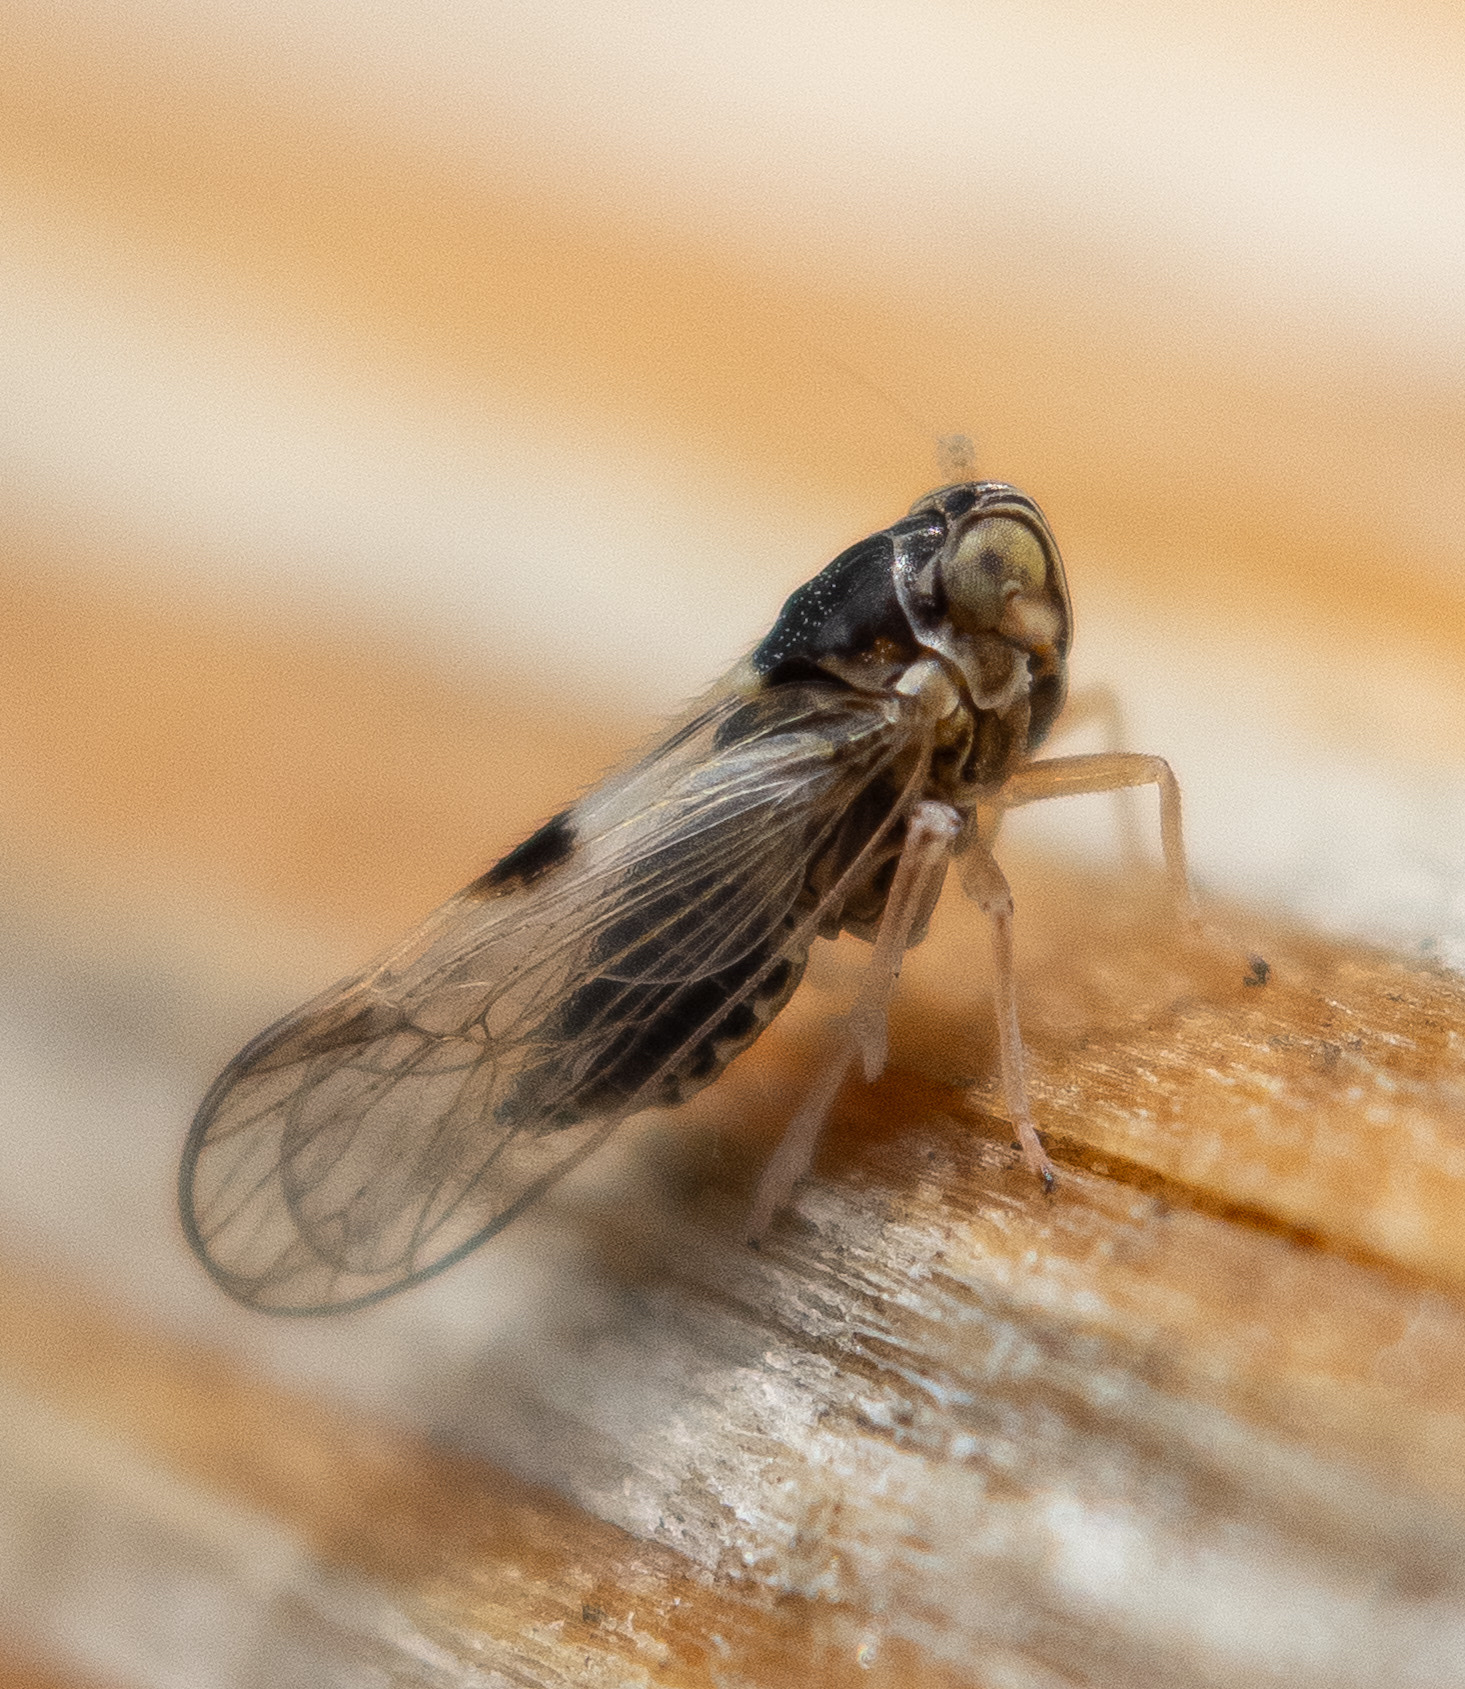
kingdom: Animalia
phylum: Arthropoda
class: Insecta
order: Hemiptera
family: Delphacidae
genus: Chionomus
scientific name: Chionomus
